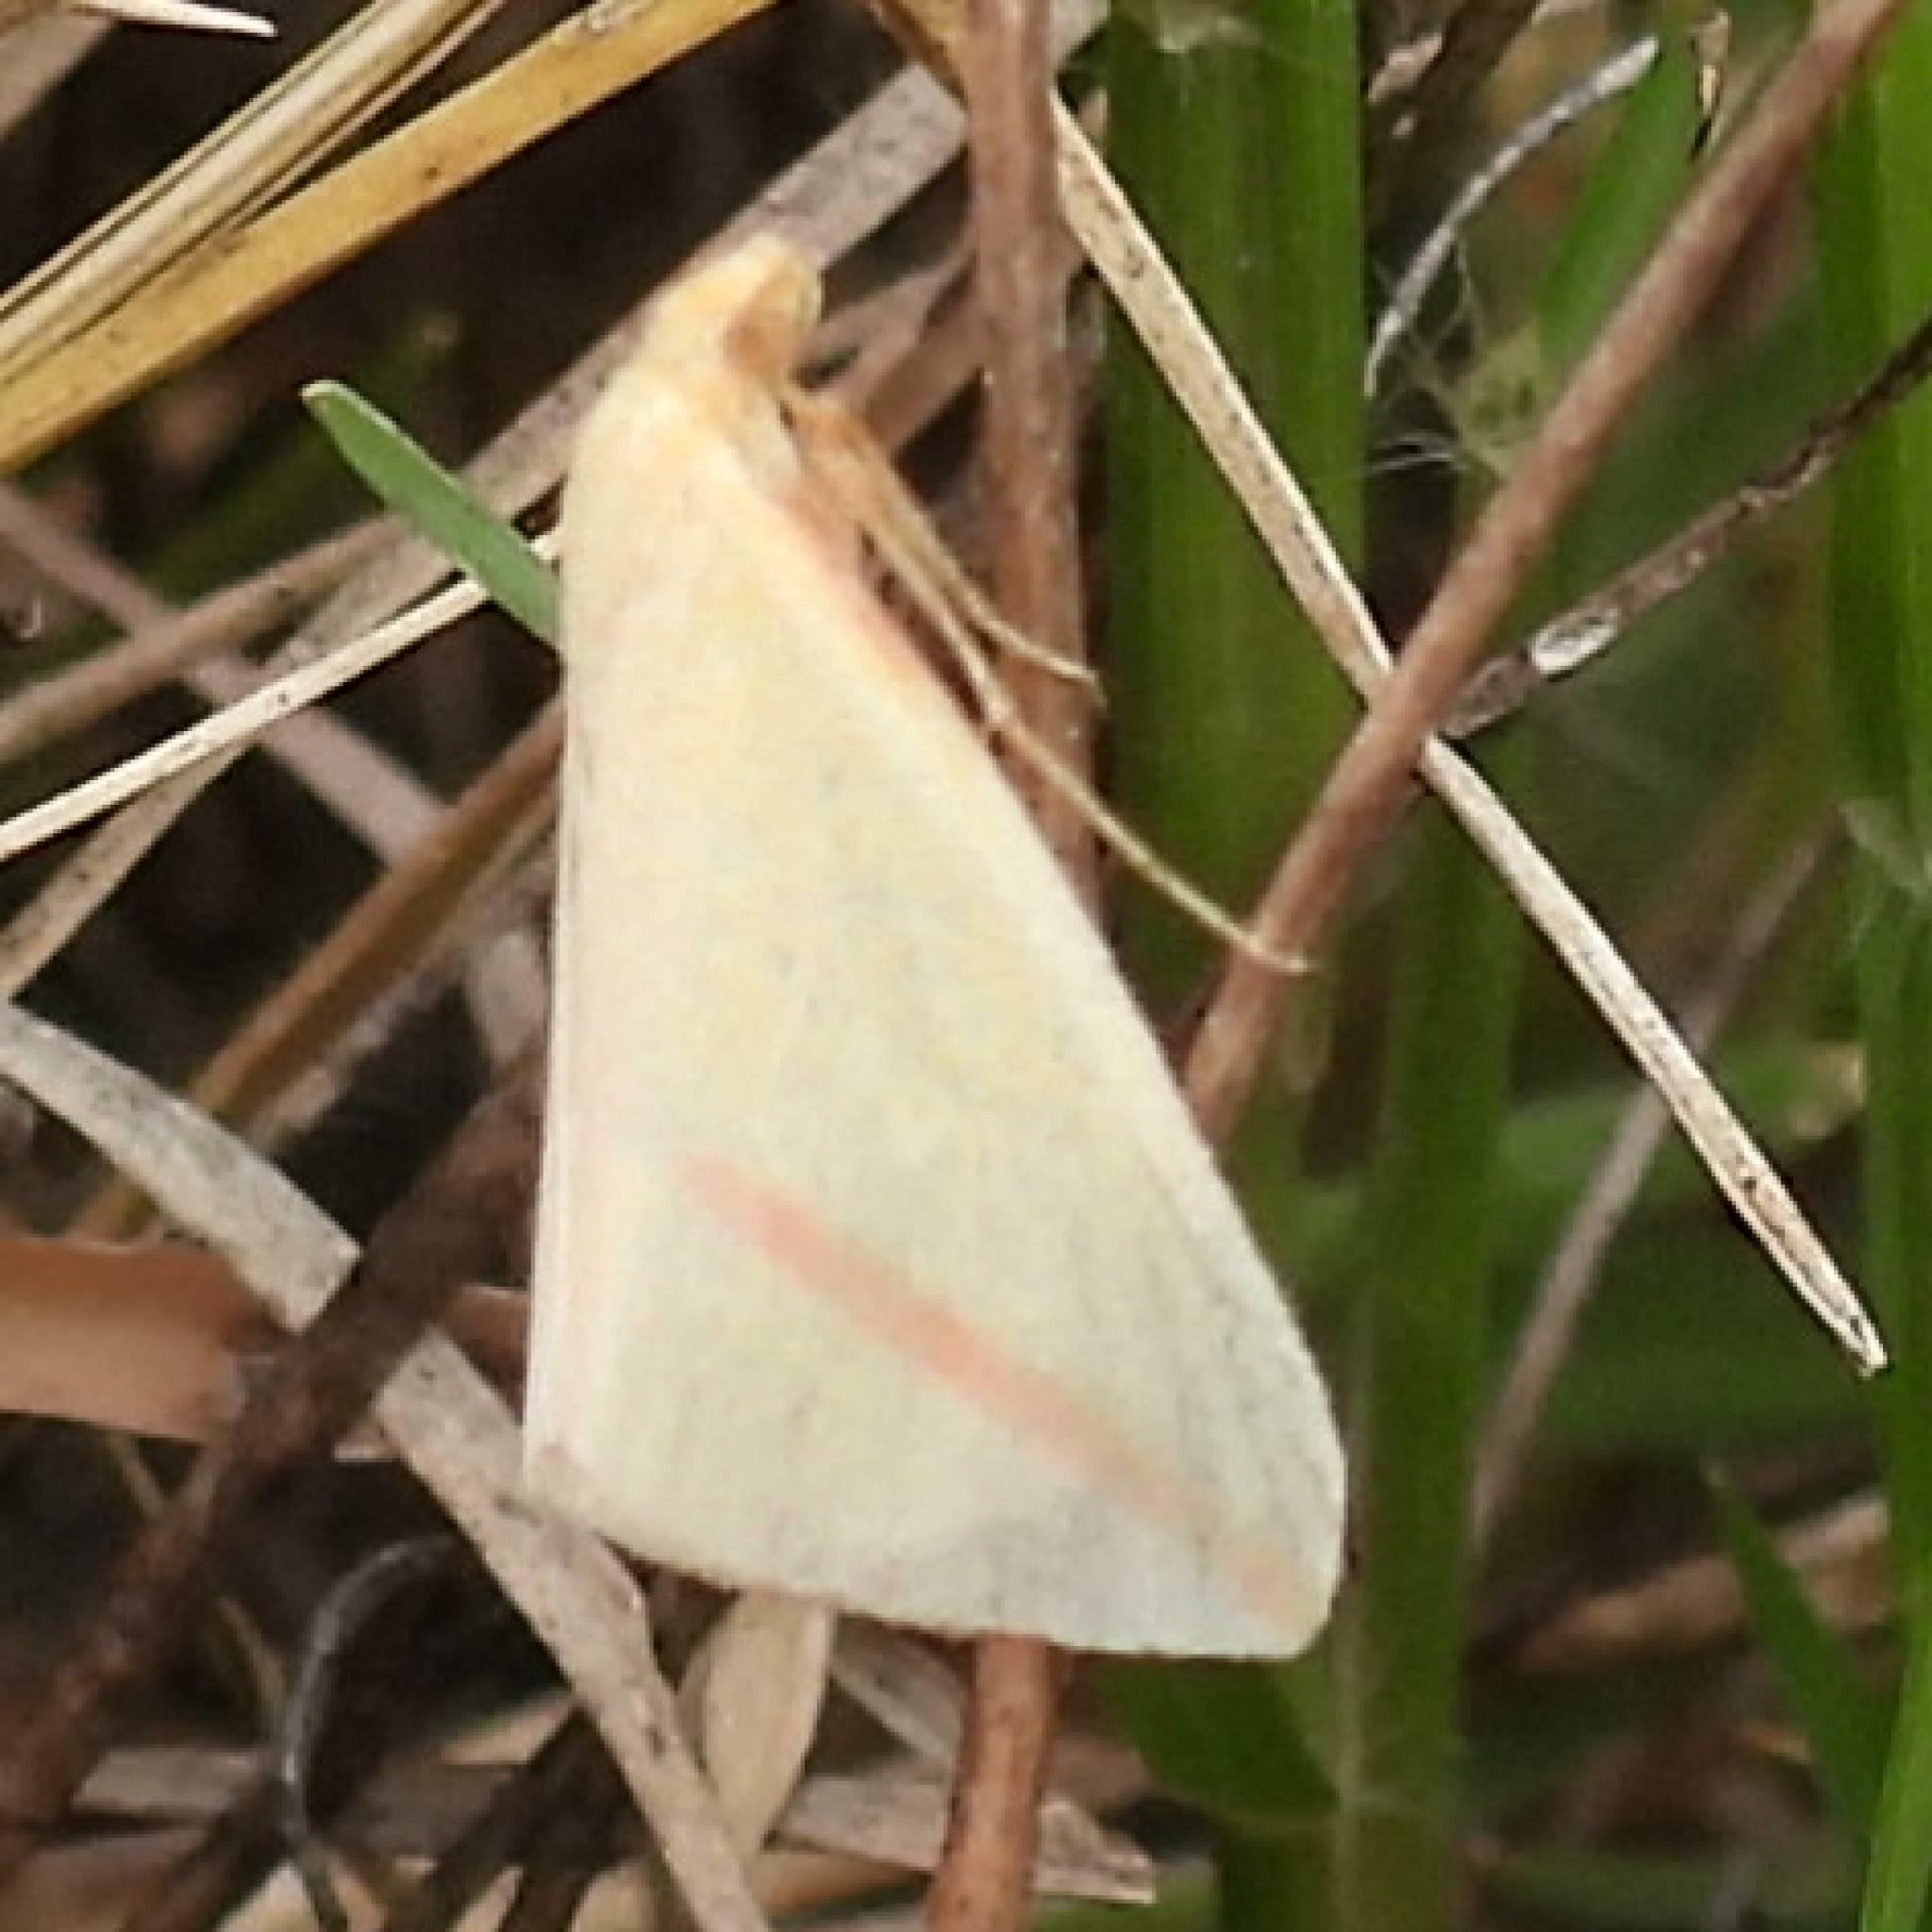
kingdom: Animalia
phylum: Arthropoda
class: Insecta
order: Lepidoptera
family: Geometridae
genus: Rhodometra
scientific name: Rhodometra sacraria
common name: Vestal
